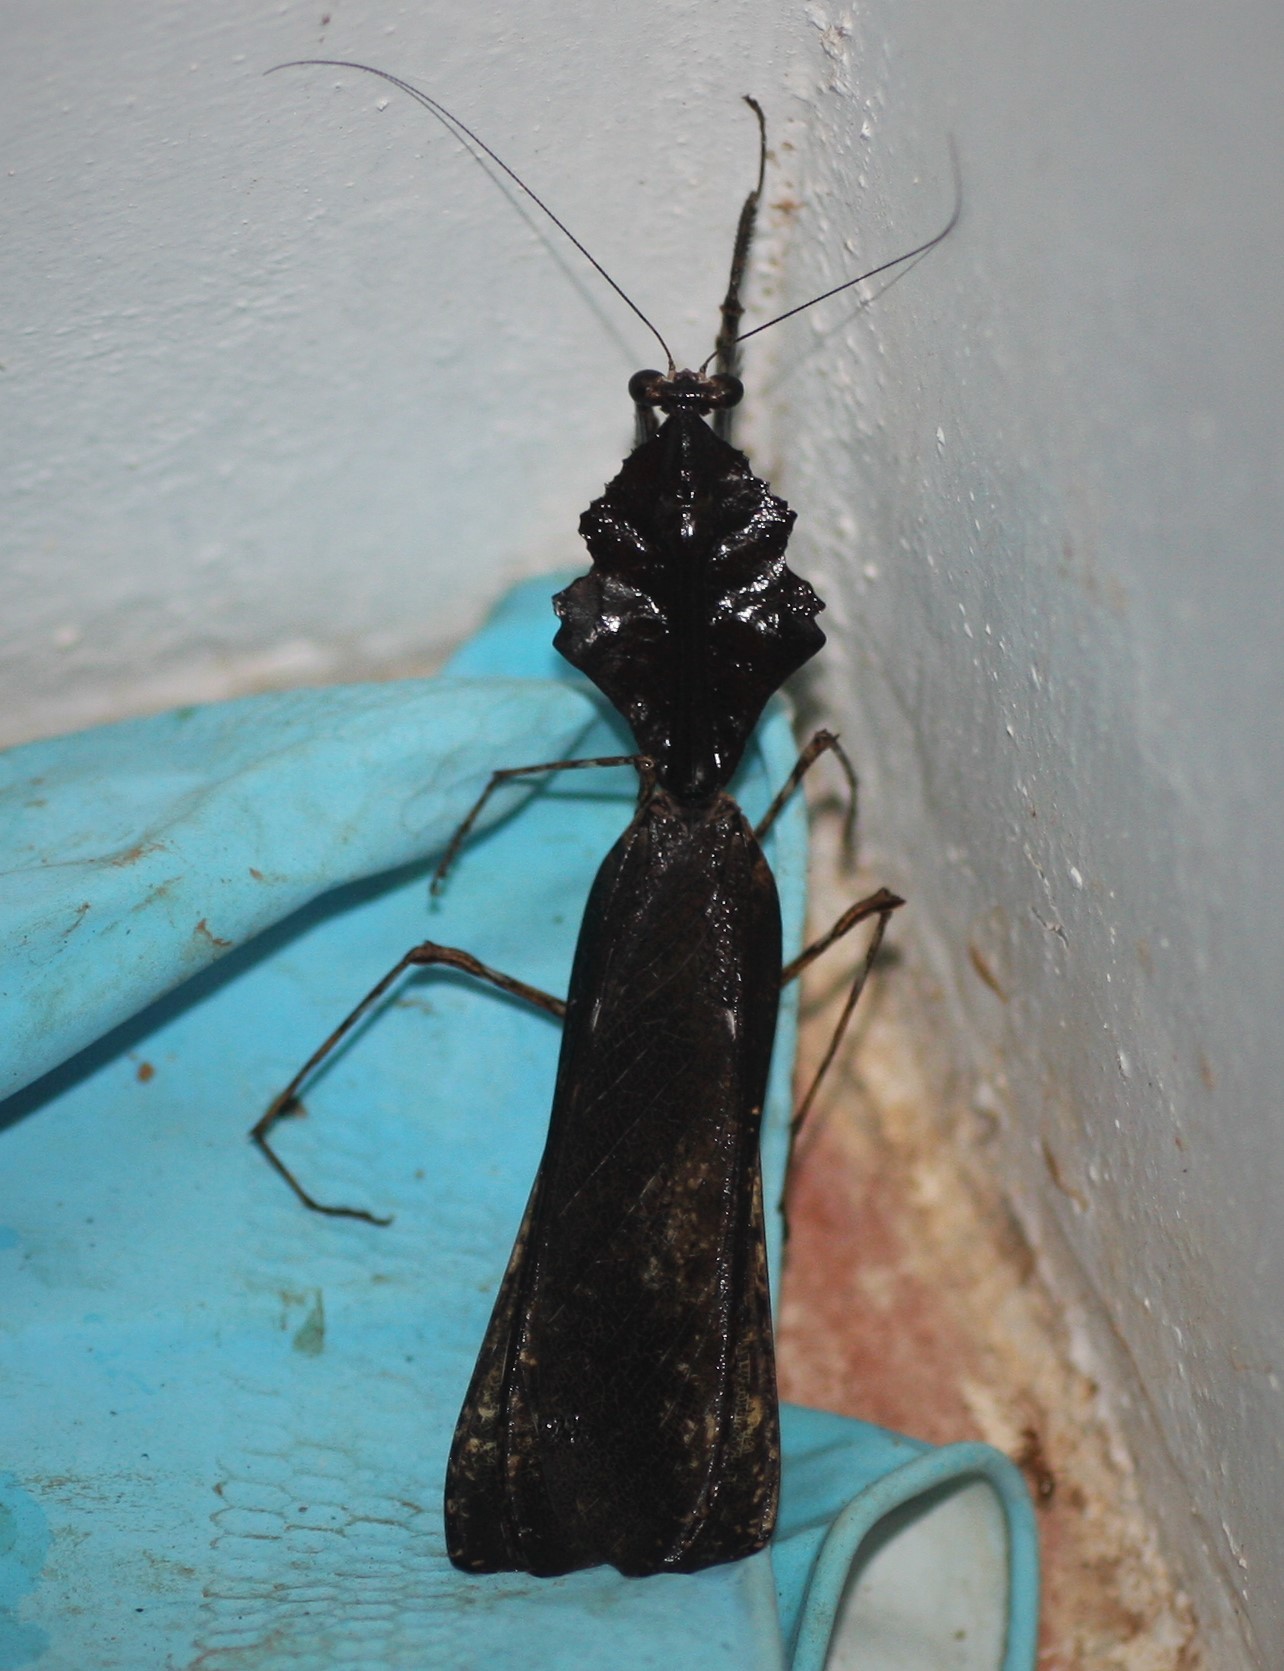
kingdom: Animalia
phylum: Arthropoda
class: Insecta
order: Mantodea
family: Deroplatyidae
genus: Deroplatys
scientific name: Deroplatys indica
